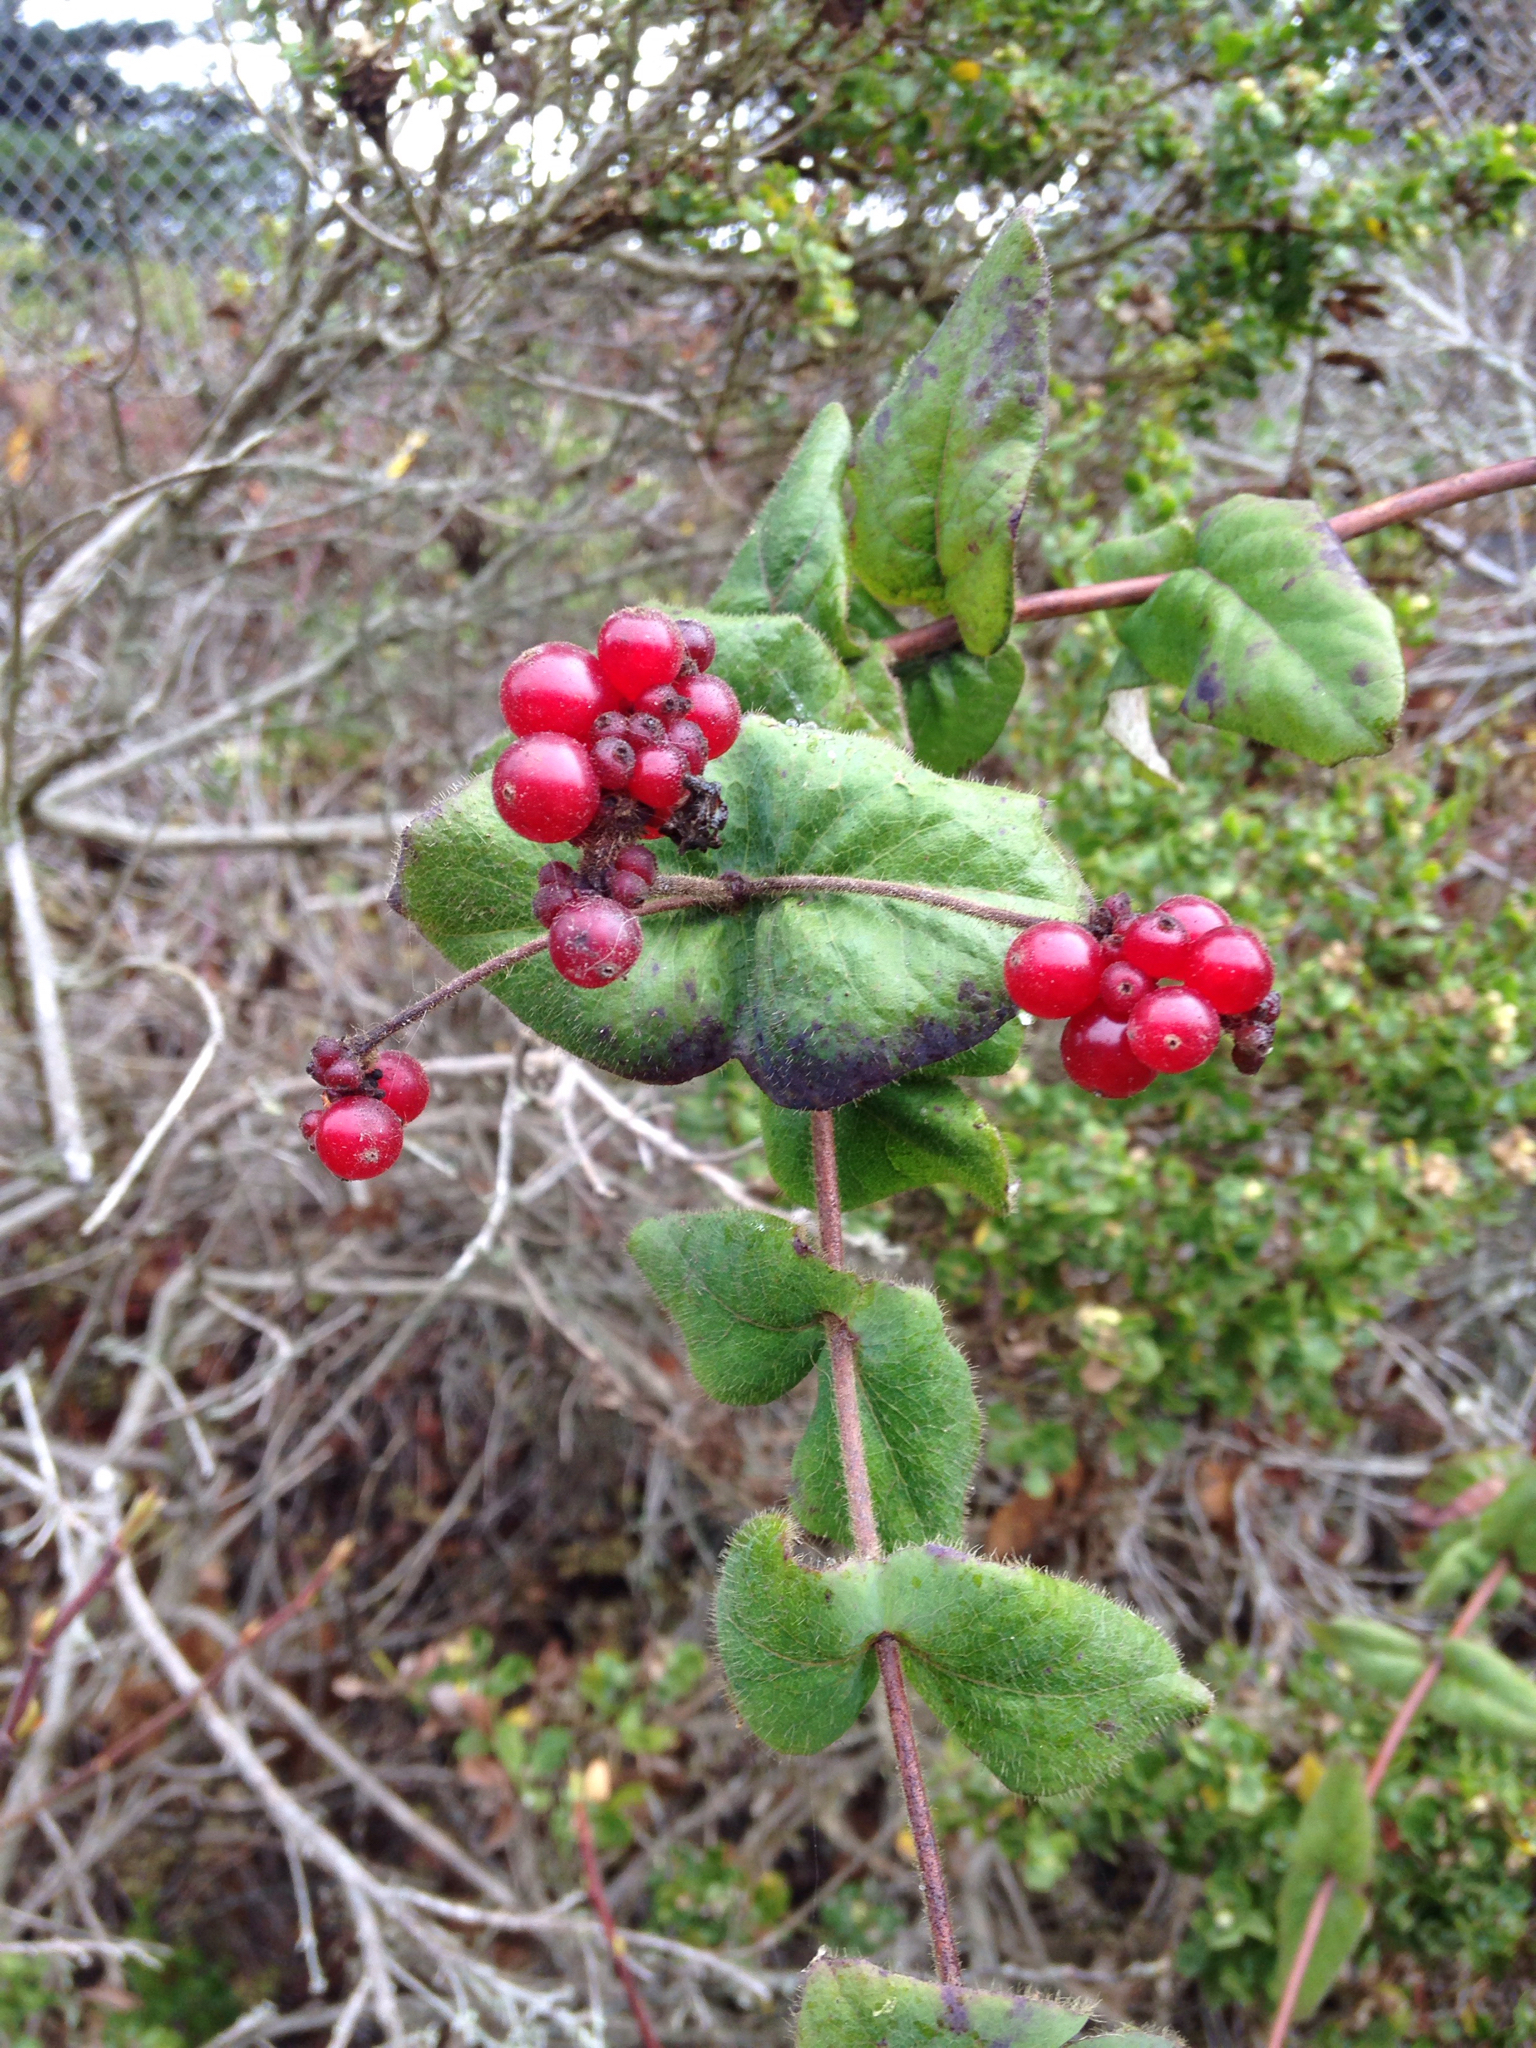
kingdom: Plantae
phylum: Tracheophyta
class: Magnoliopsida
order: Dipsacales
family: Caprifoliaceae
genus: Lonicera
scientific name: Lonicera hispidula
